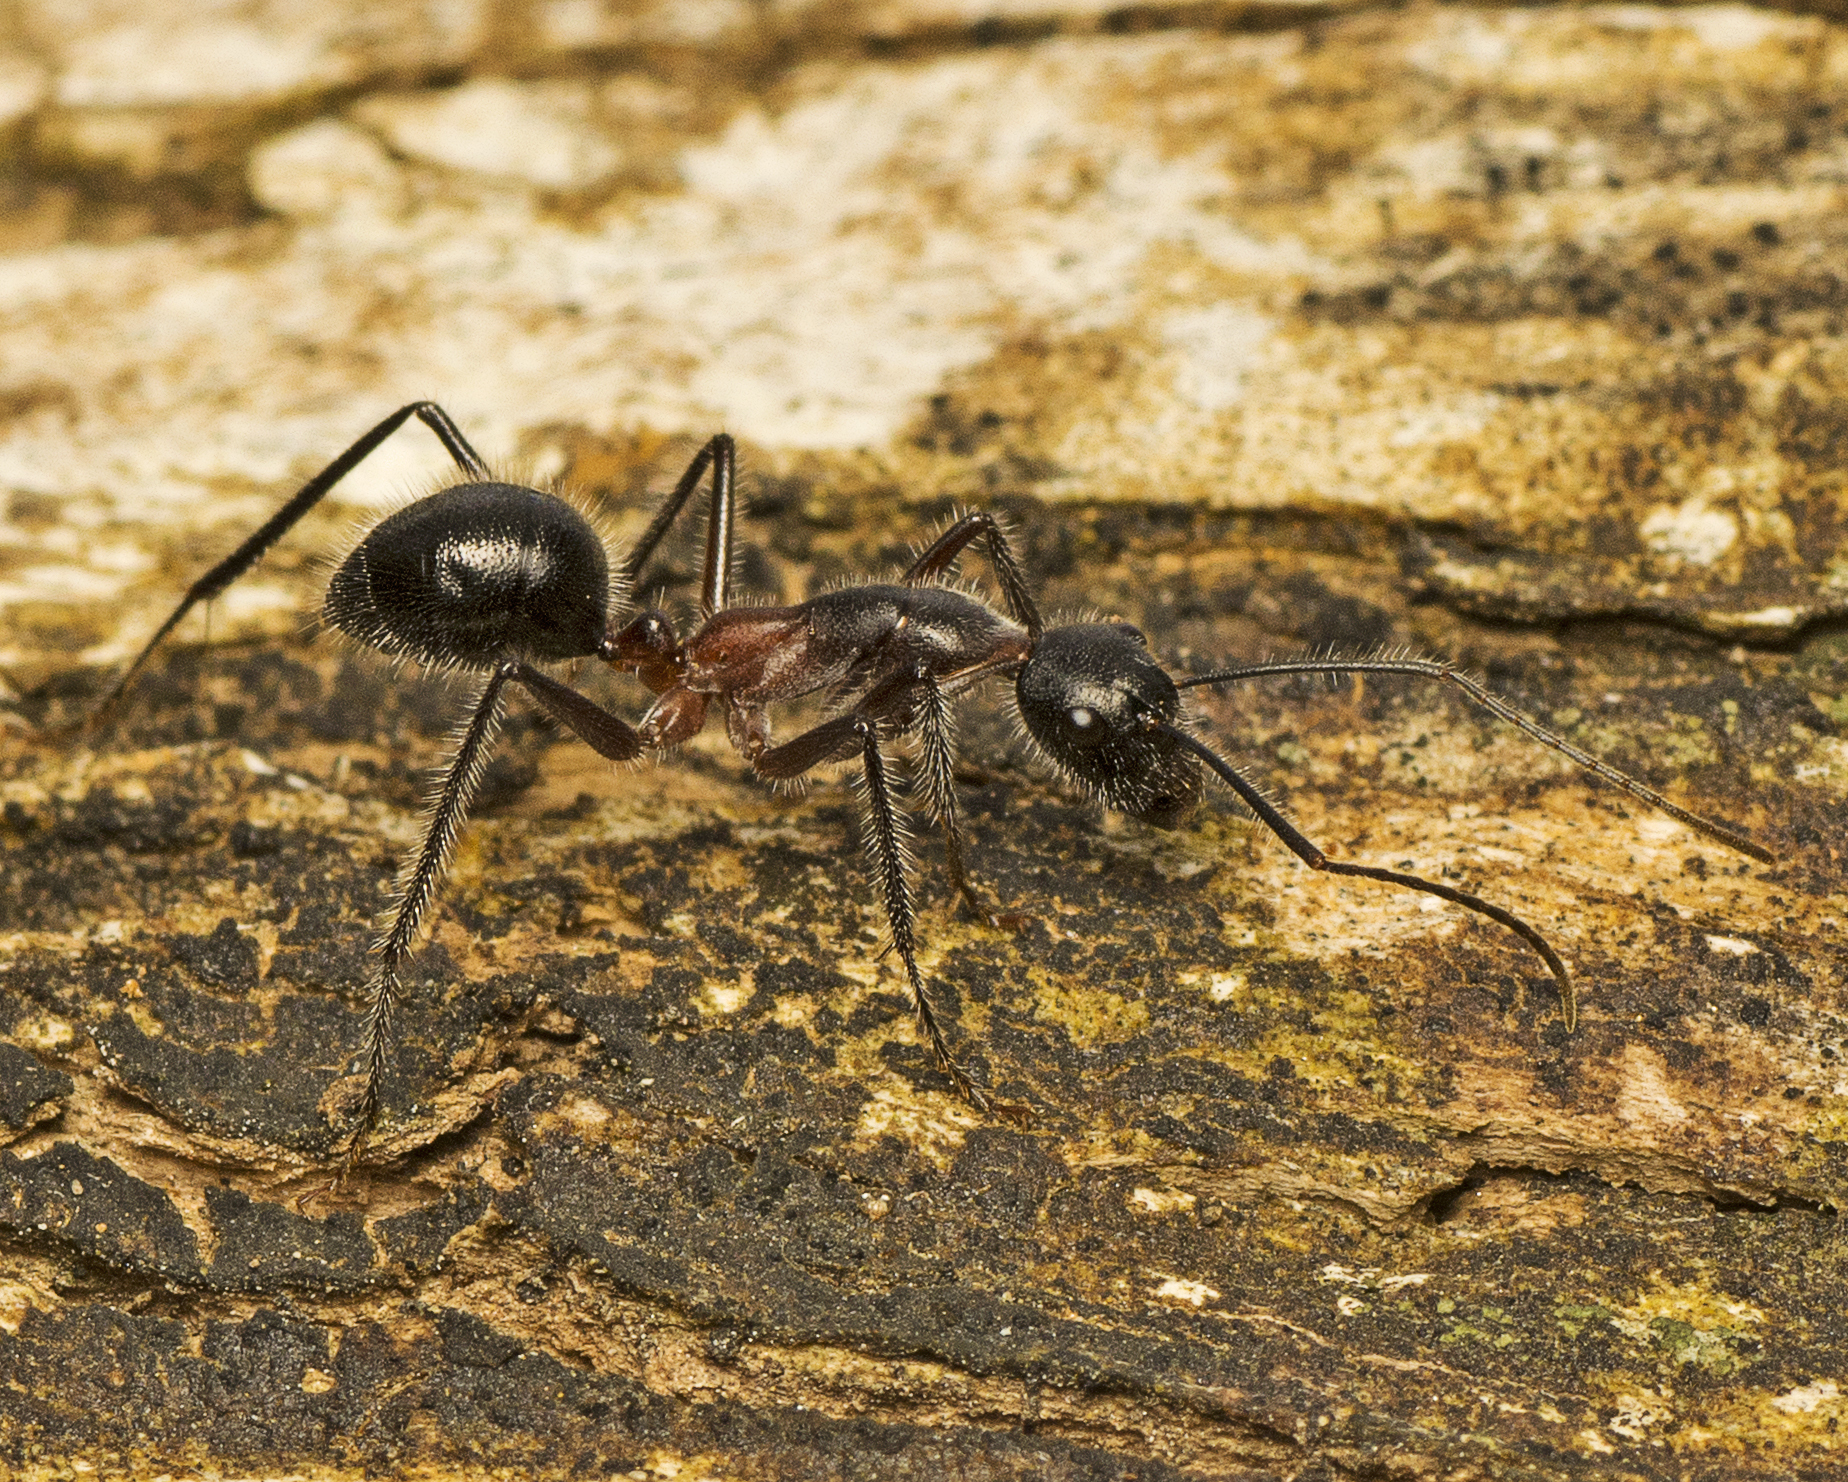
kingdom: Animalia
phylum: Arthropoda
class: Insecta
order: Hymenoptera
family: Formicidae
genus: Camponotus
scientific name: Camponotus intrepidus
